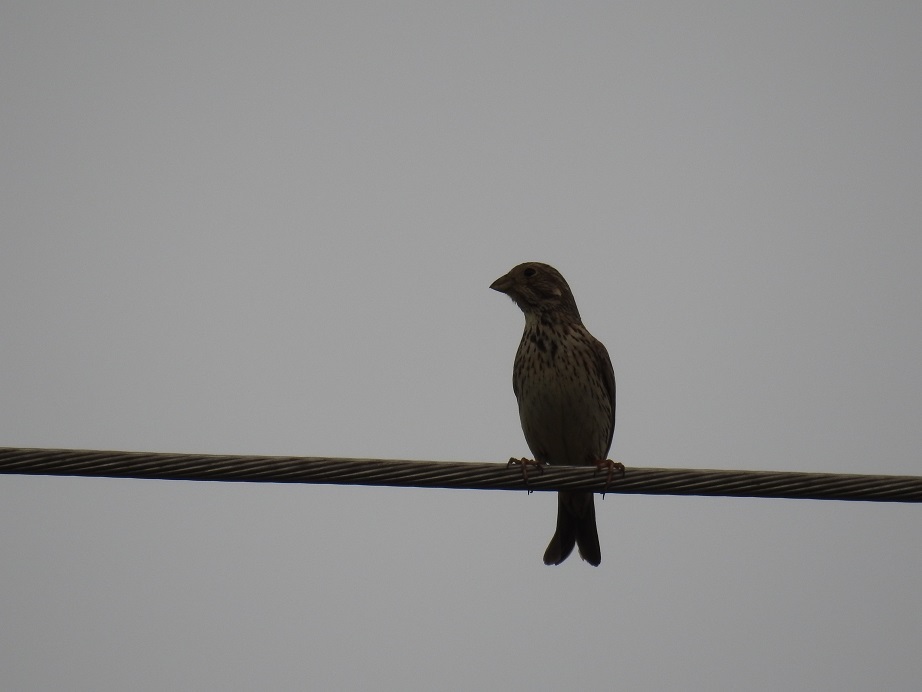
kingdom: Animalia
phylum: Chordata
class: Aves
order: Passeriformes
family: Emberizidae
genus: Emberiza
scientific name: Emberiza calandra
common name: Corn bunting
